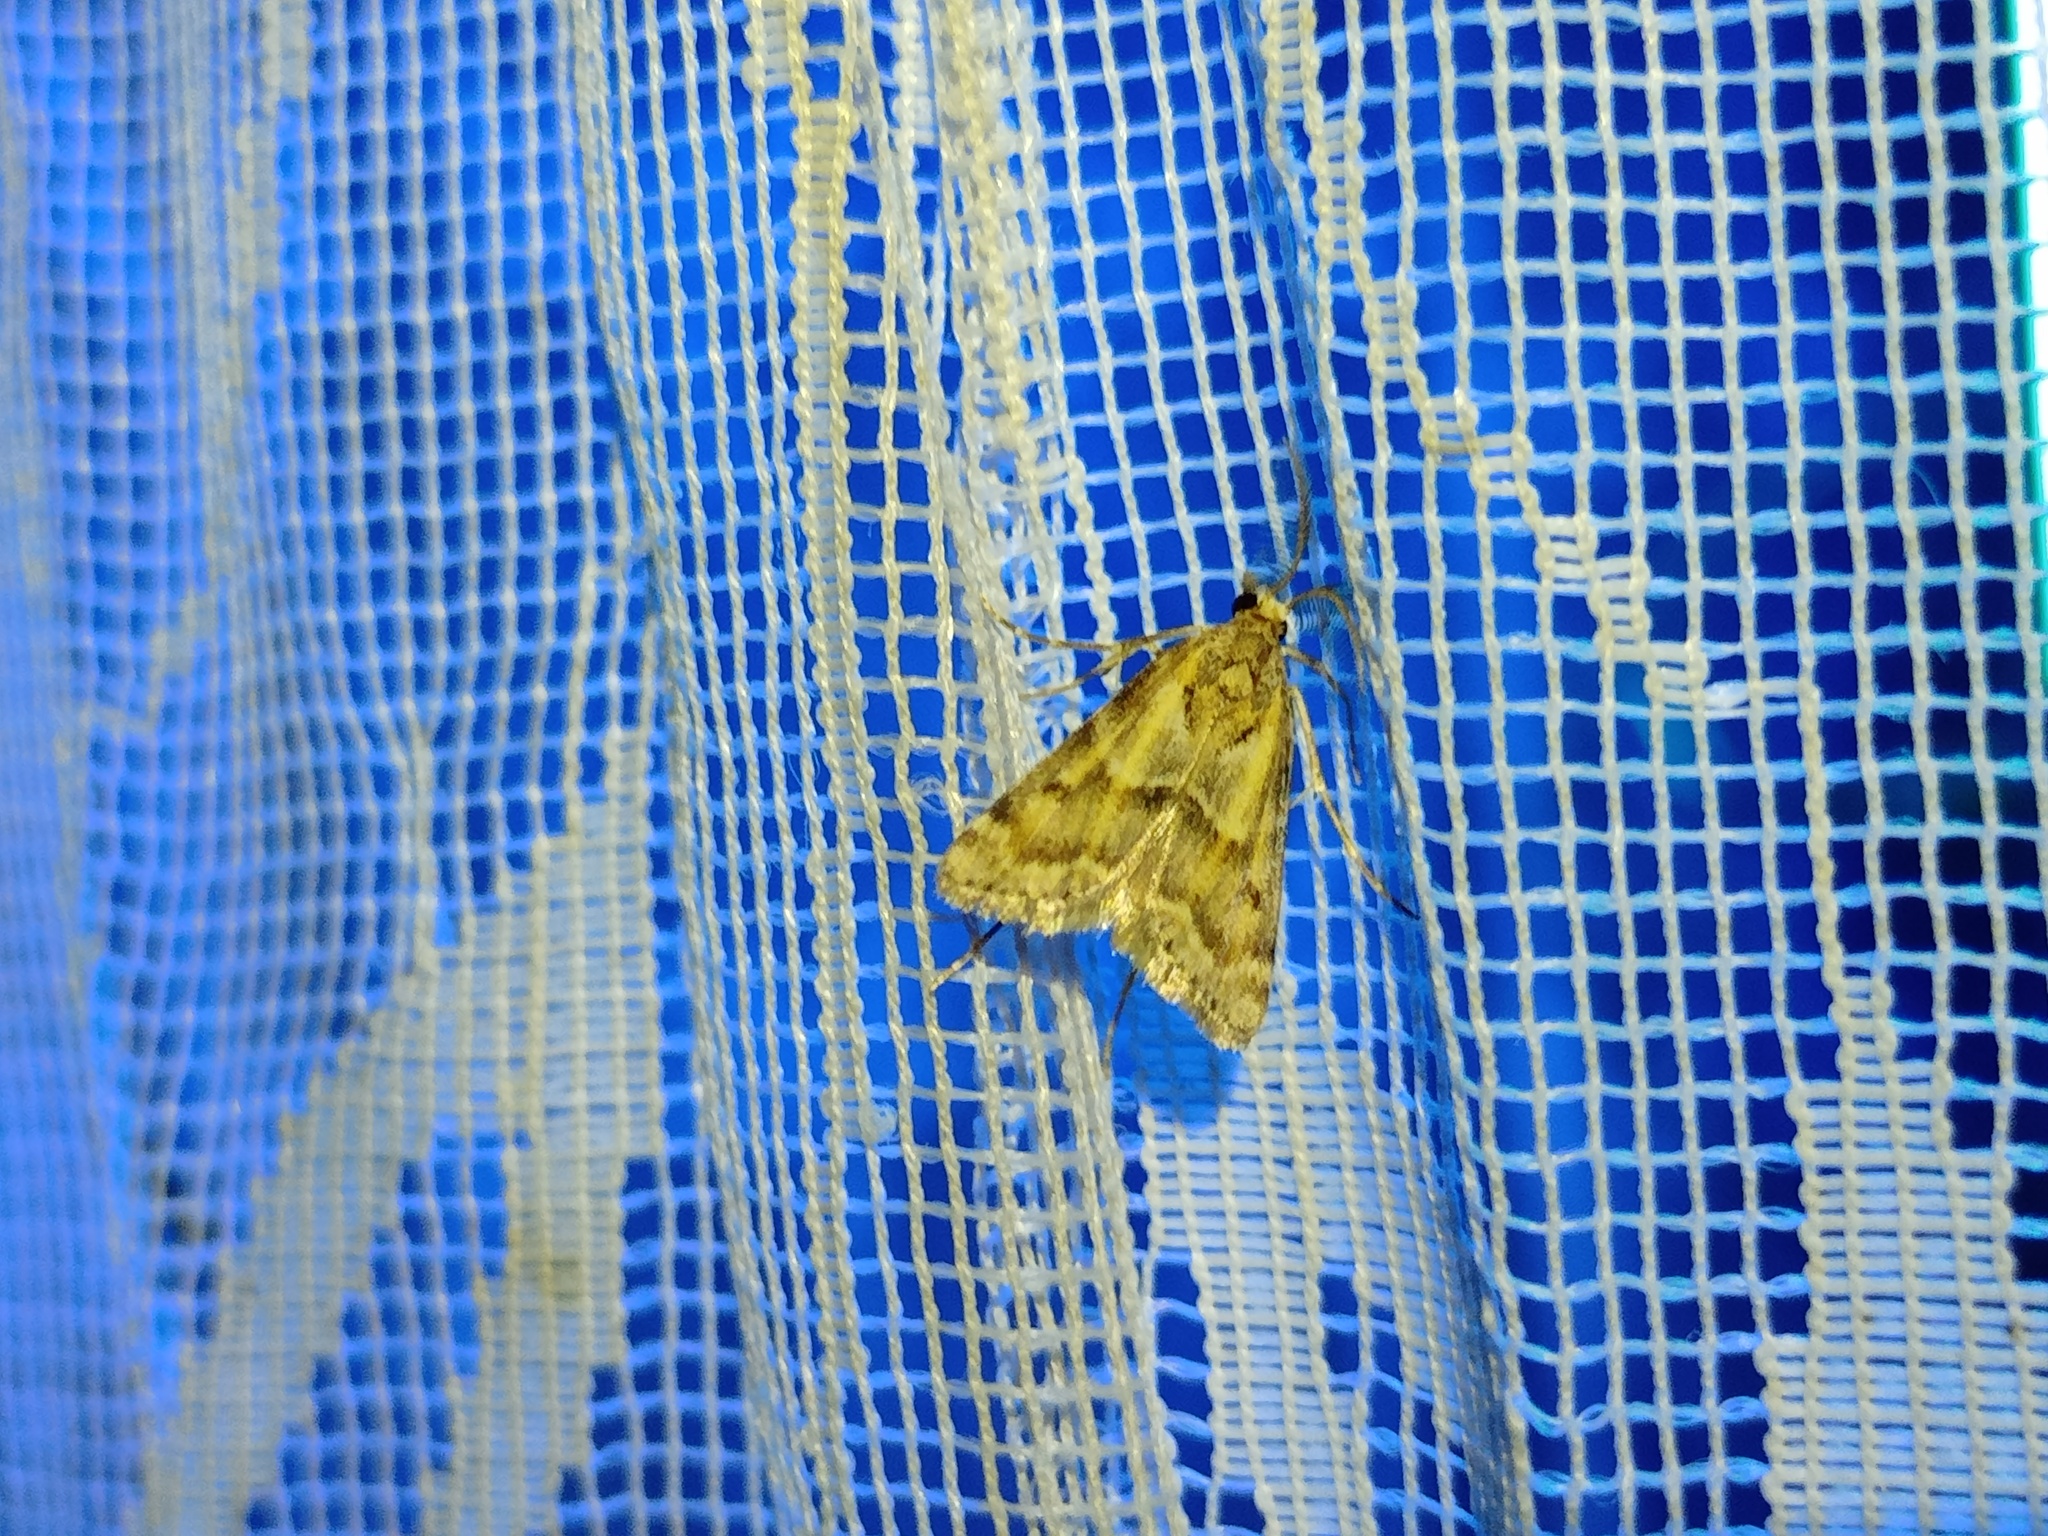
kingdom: Animalia
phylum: Arthropoda
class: Insecta
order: Lepidoptera
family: Crambidae
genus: Prionapteryx
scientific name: Prionapteryx lancerotella
